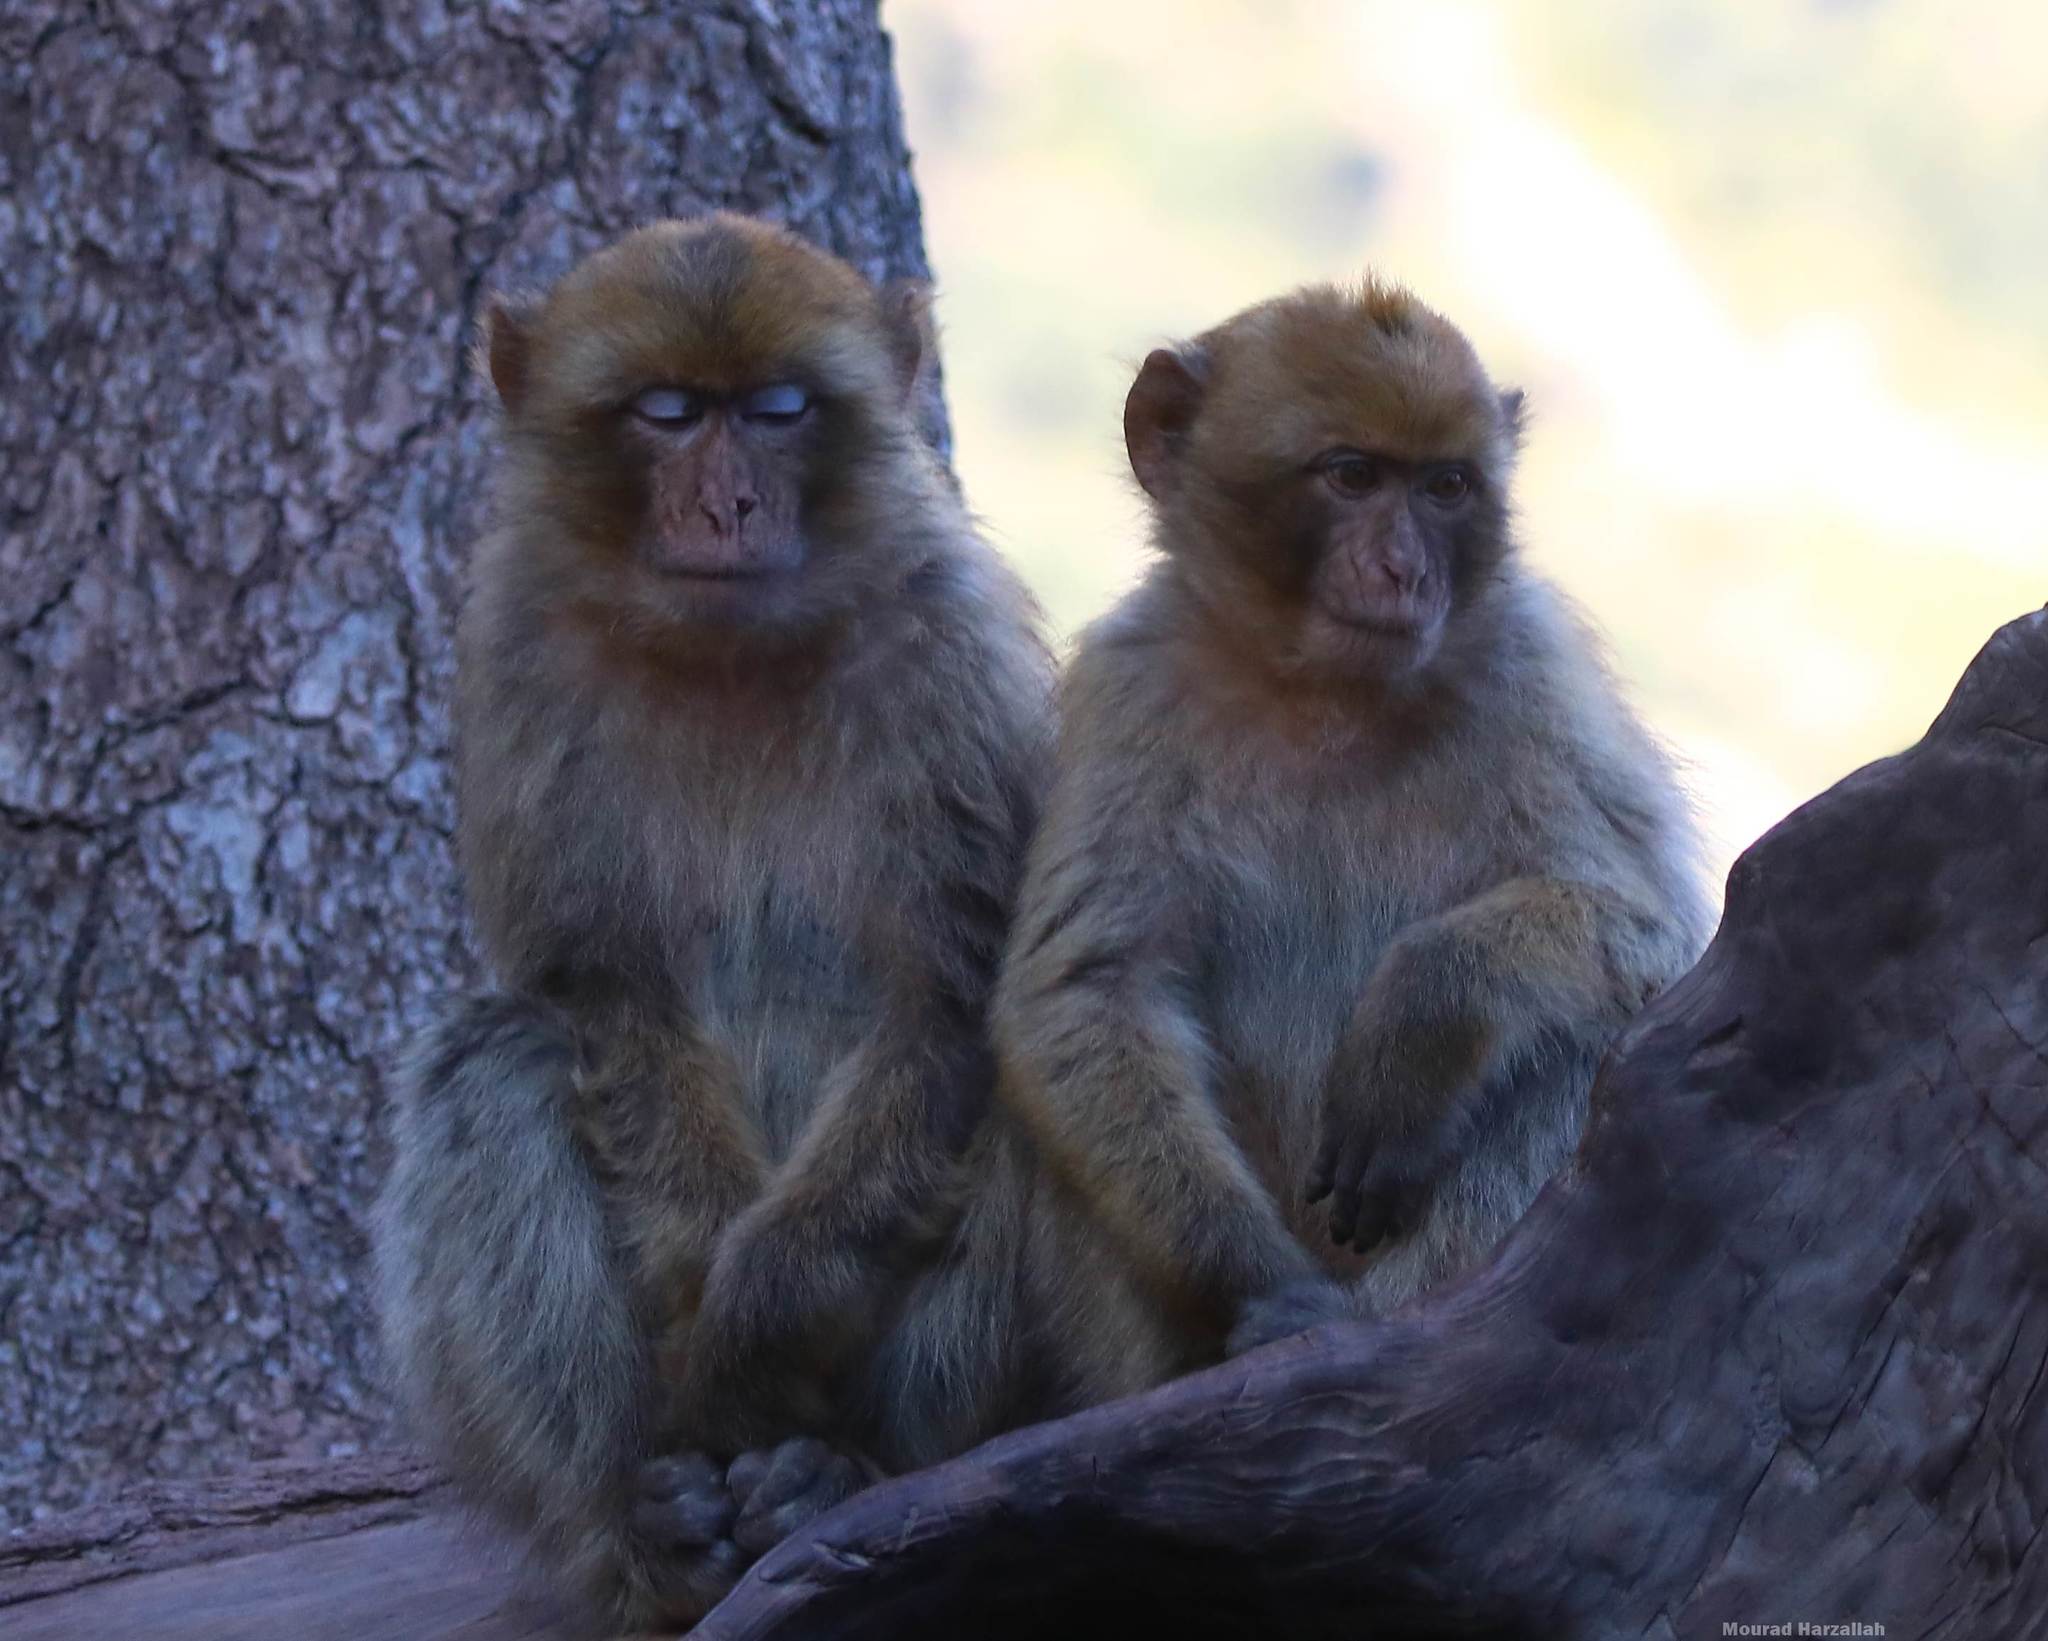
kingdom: Animalia
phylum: Chordata
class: Mammalia
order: Primates
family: Cercopithecidae
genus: Macaca
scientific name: Macaca sylvanus
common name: Barbary macaque
